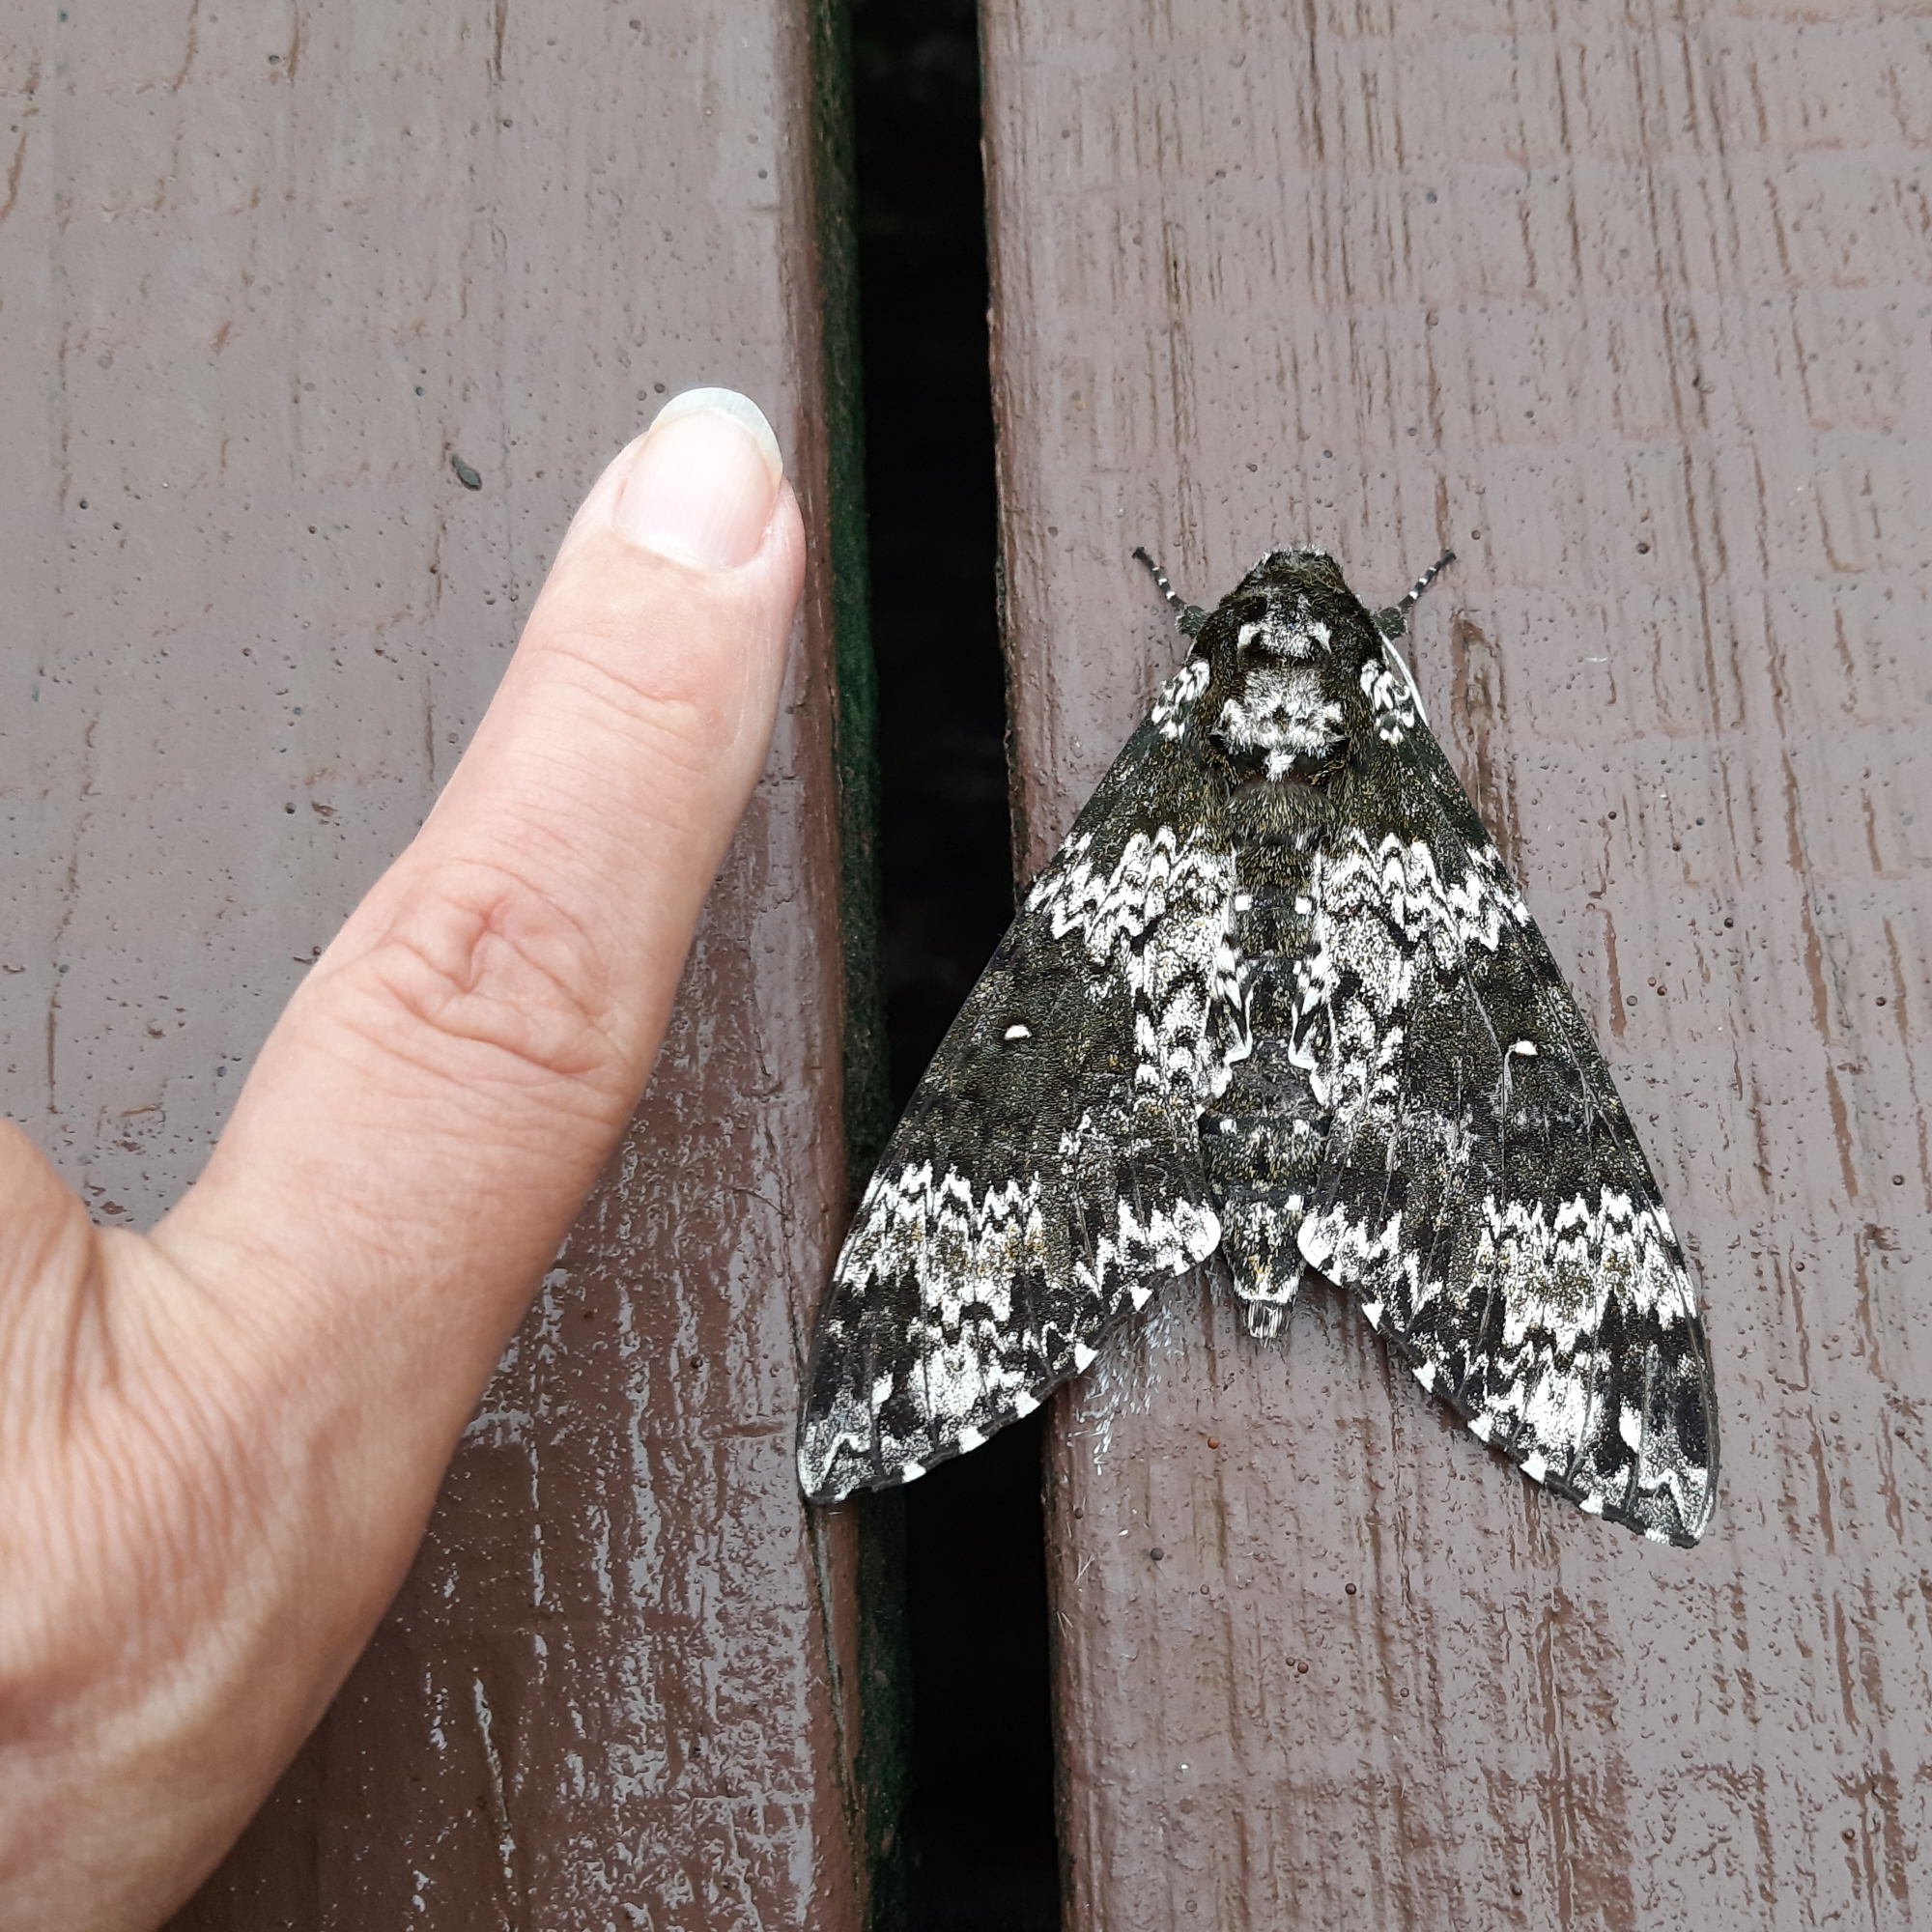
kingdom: Animalia
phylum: Arthropoda
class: Insecta
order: Lepidoptera
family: Sphingidae
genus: Manduca
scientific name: Manduca rustica
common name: Rustic sphinx
